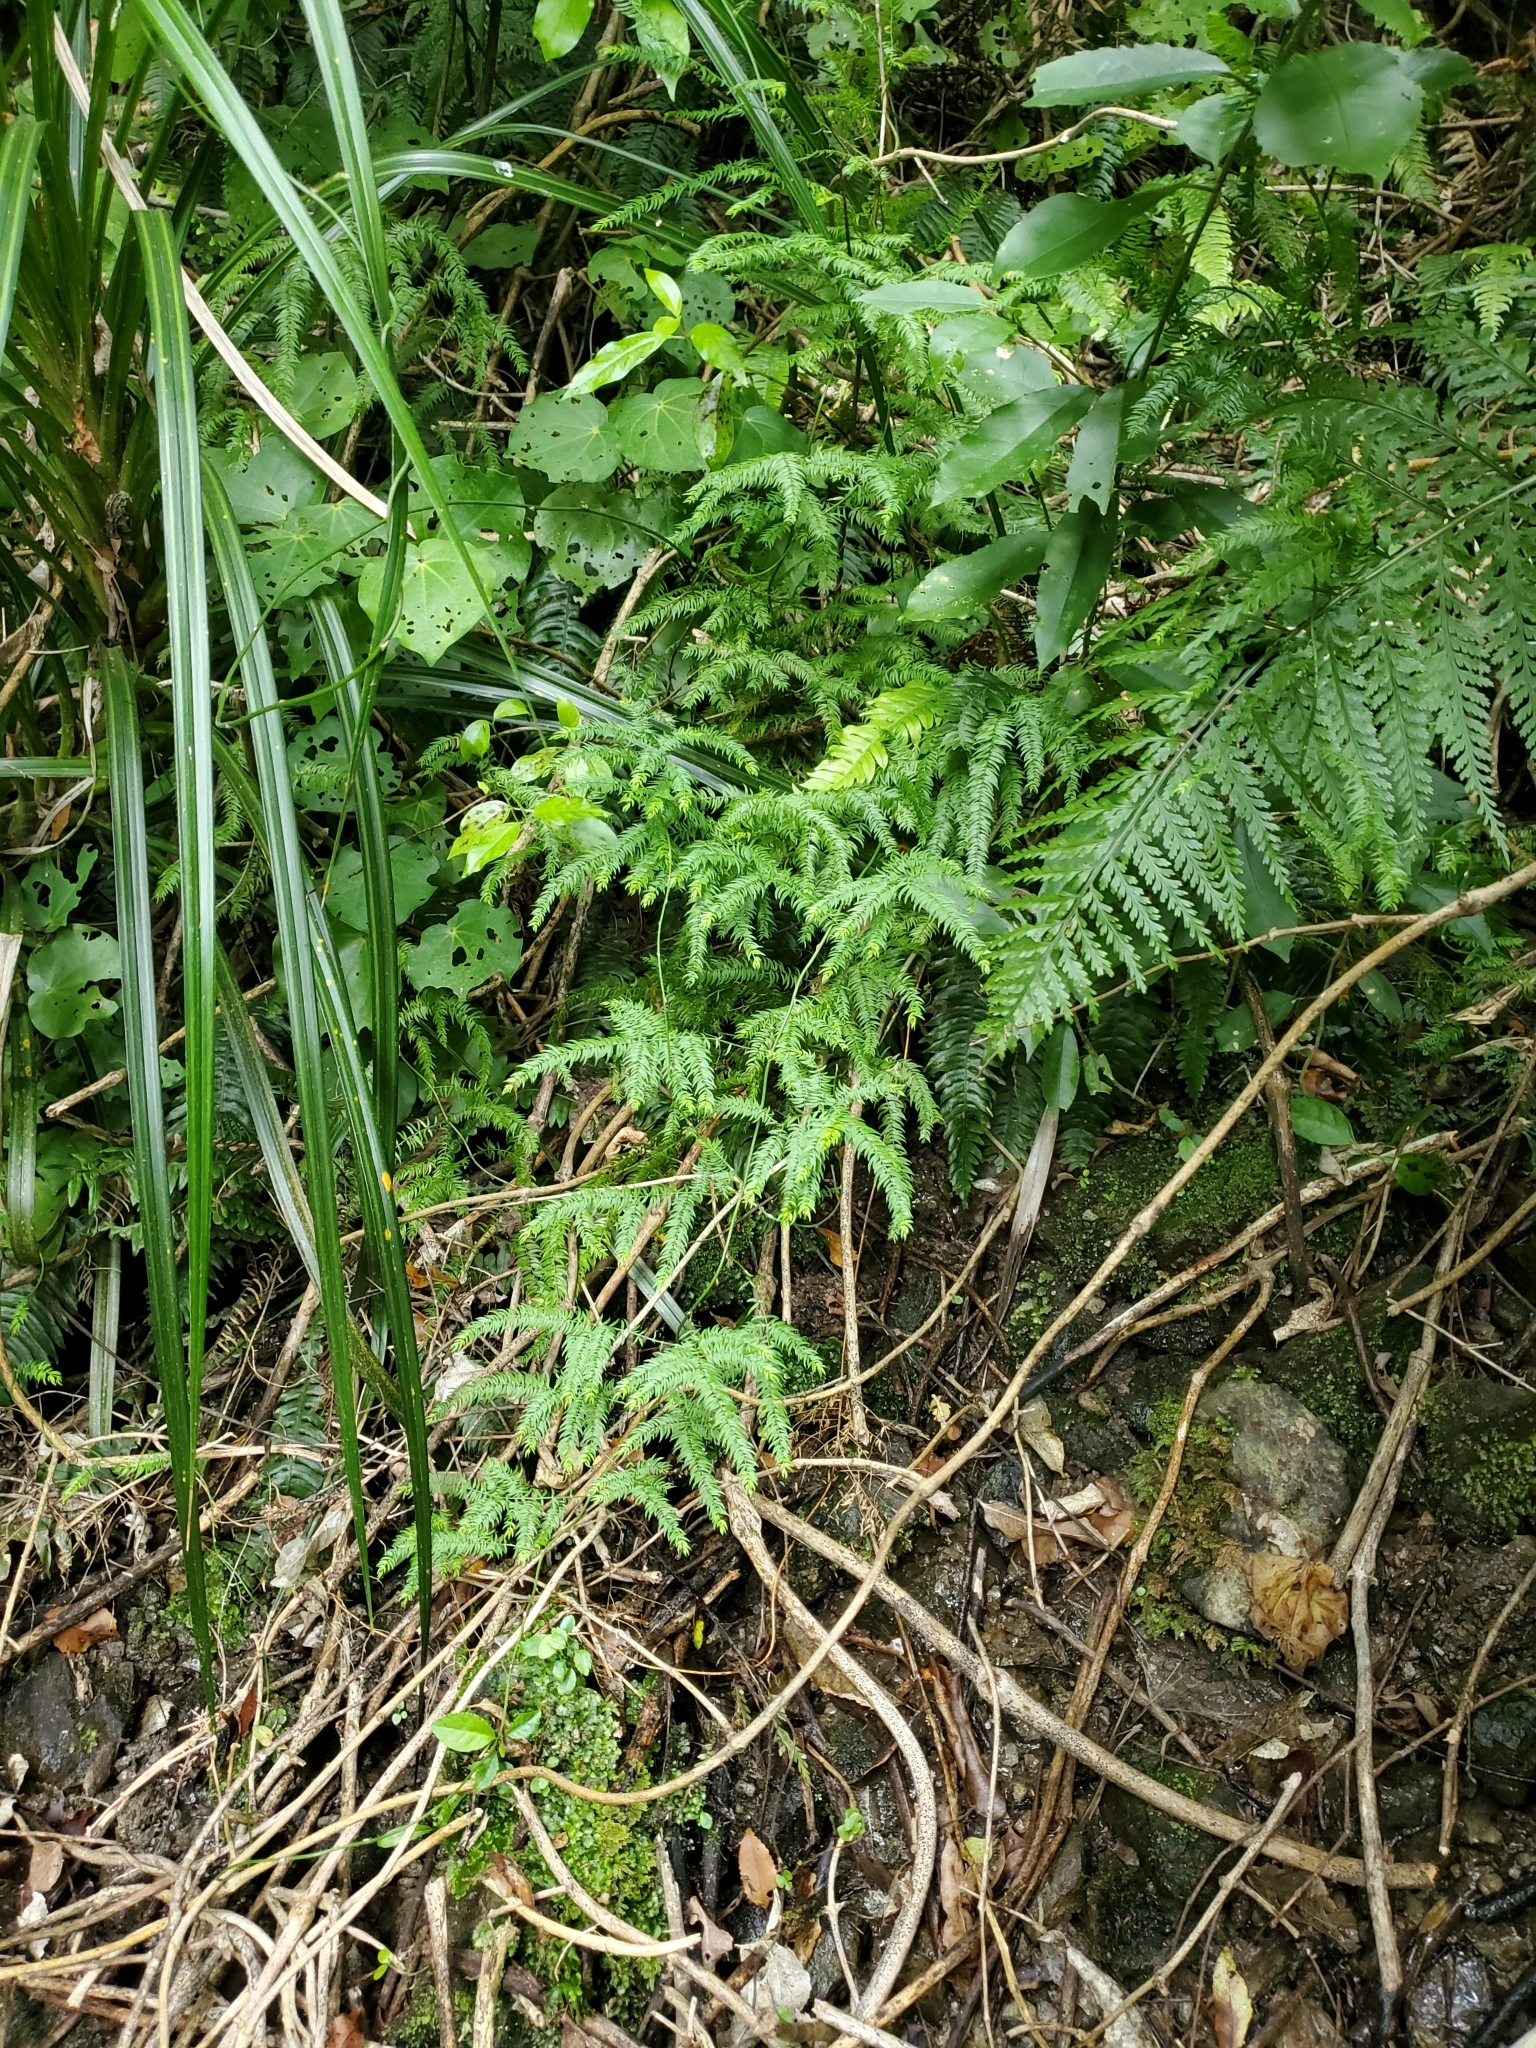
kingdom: Plantae
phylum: Tracheophyta
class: Liliopsida
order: Asparagales
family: Asparagaceae
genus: Asparagus
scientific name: Asparagus scandens
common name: Asparagus-fern
